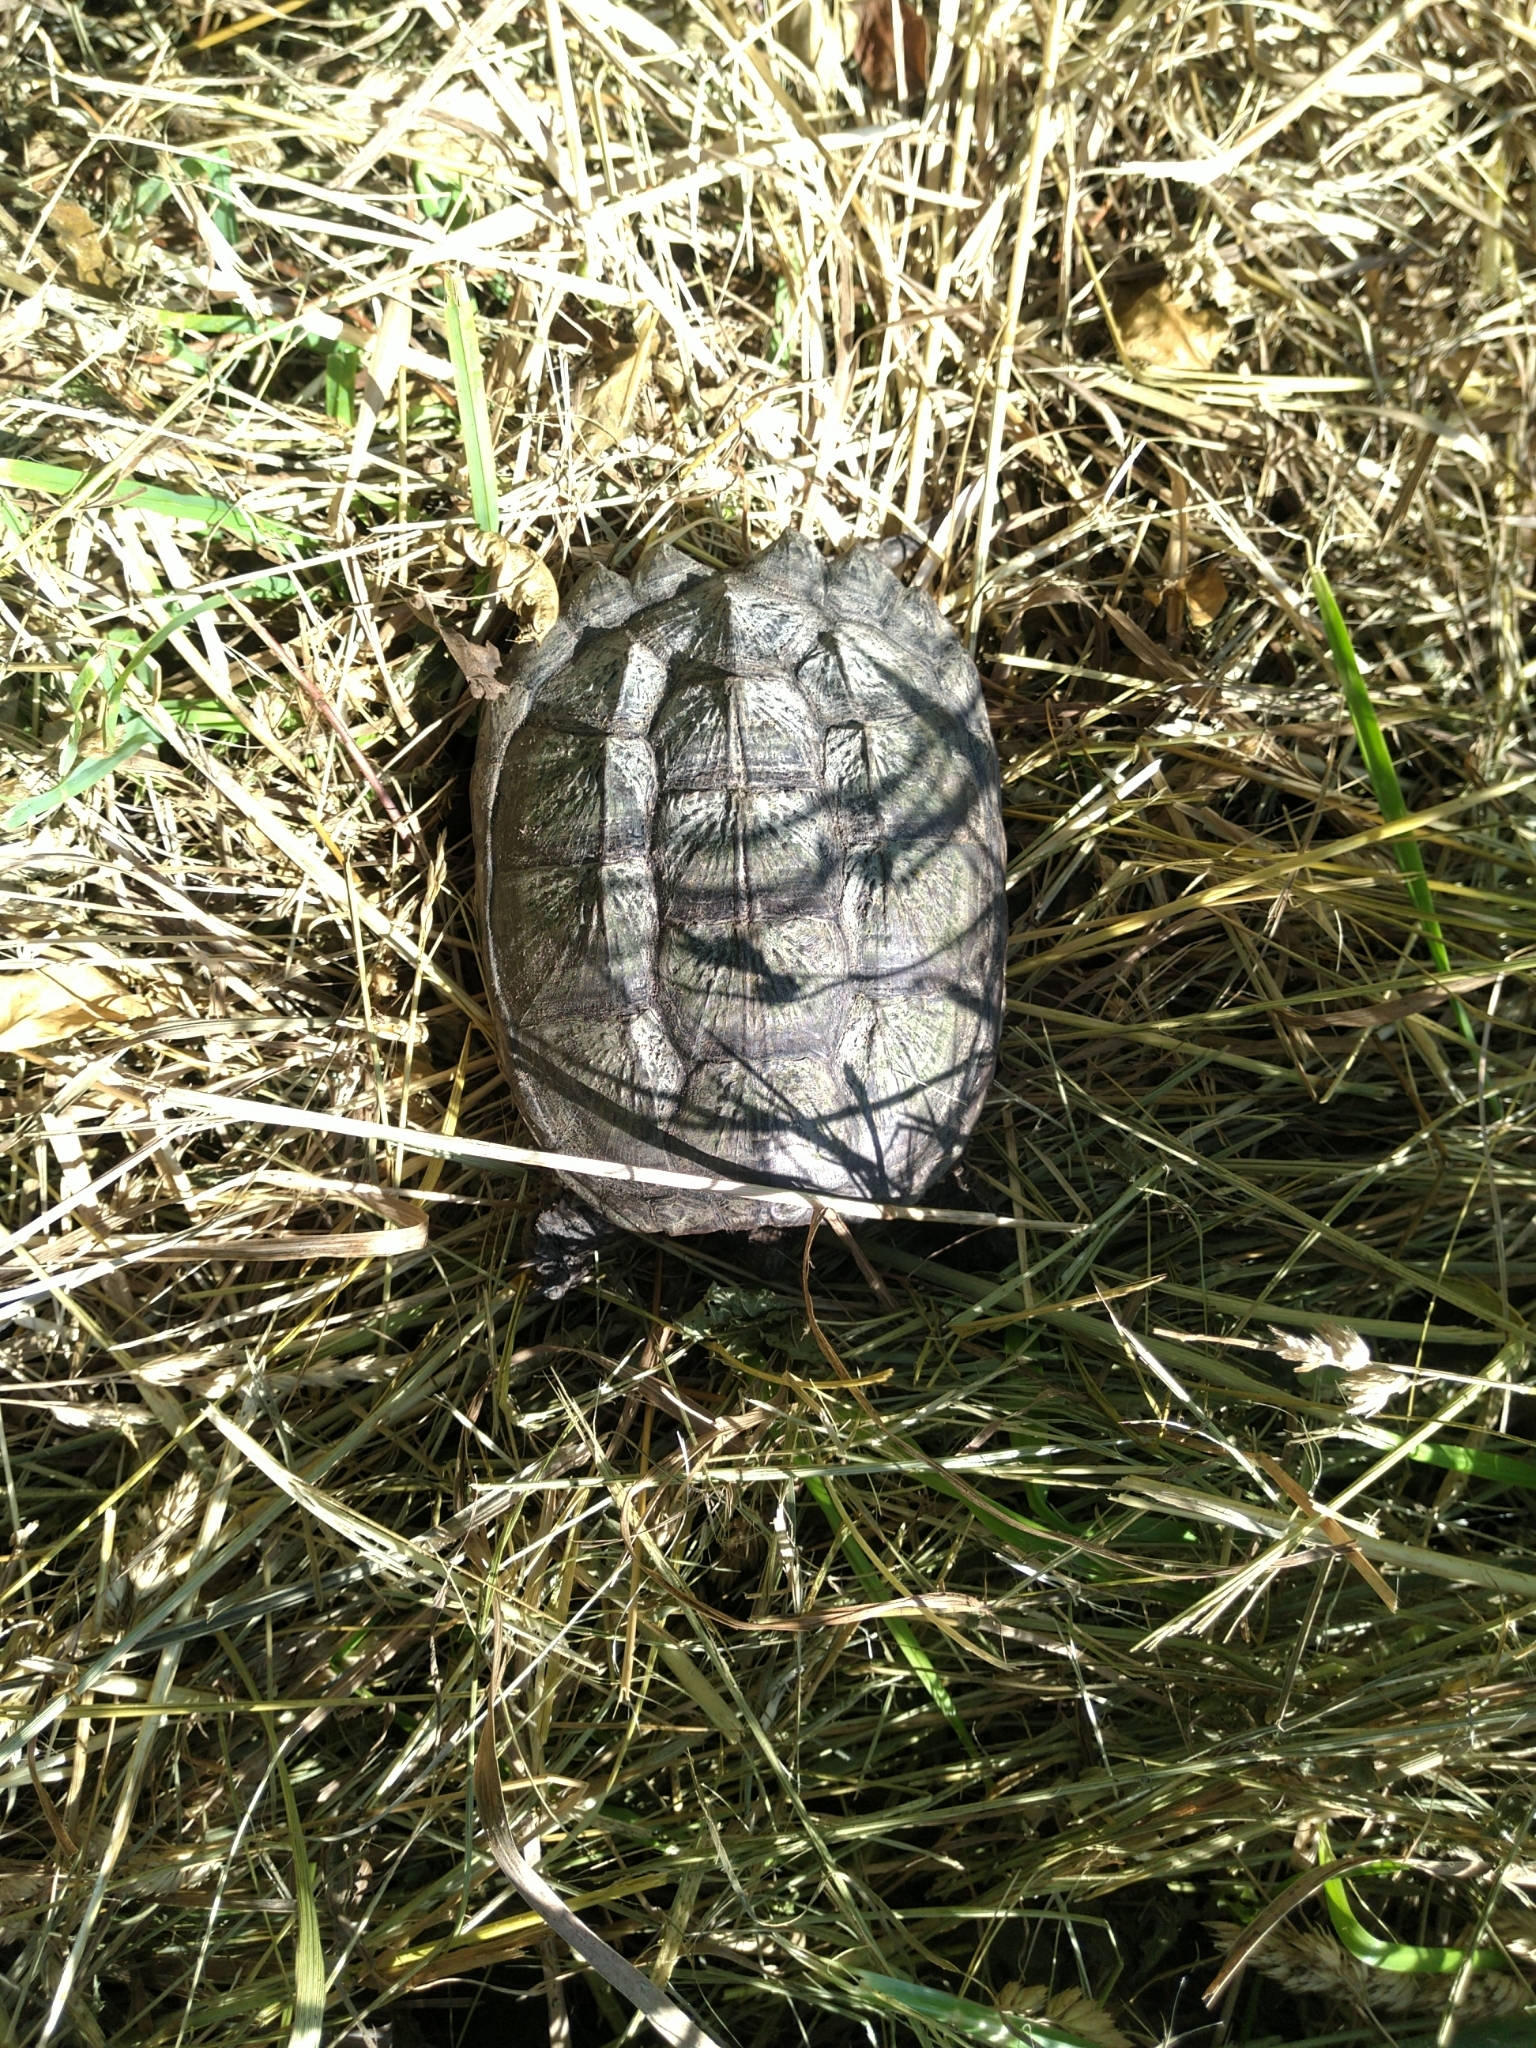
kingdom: Animalia
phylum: Chordata
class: Testudines
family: Chelydridae
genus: Chelydra
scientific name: Chelydra serpentina
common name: Common snapping turtle
